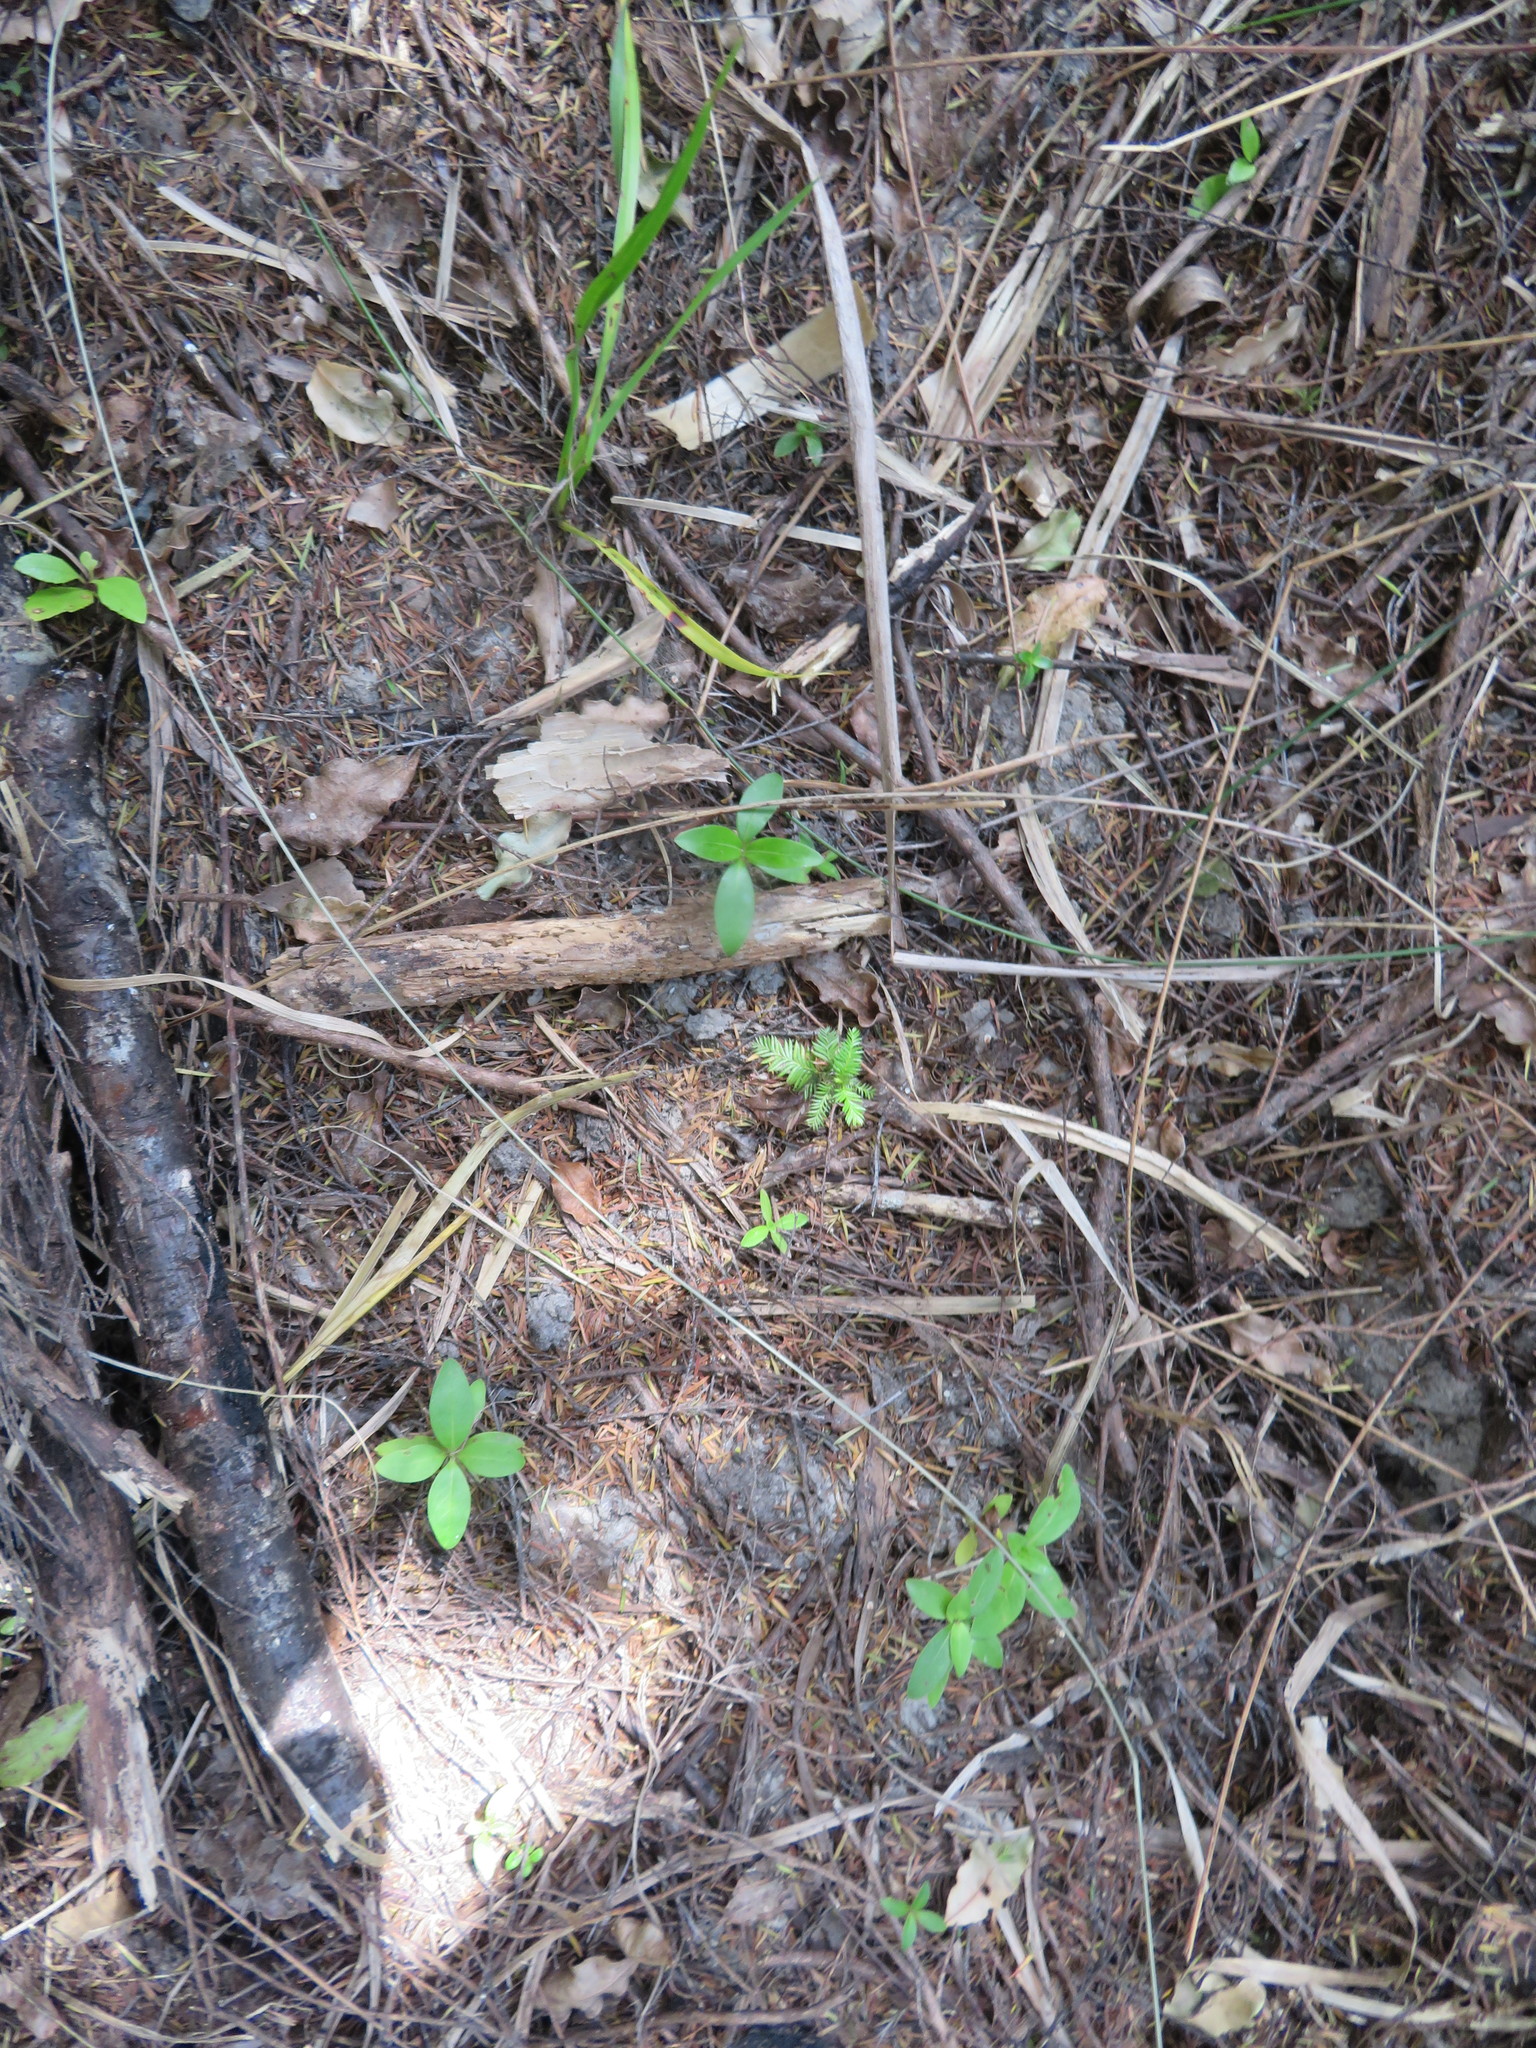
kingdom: Plantae
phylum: Tracheophyta
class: Liliopsida
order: Asparagales
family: Asphodelaceae
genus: Phormium
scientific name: Phormium tenax
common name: New zealand flax
